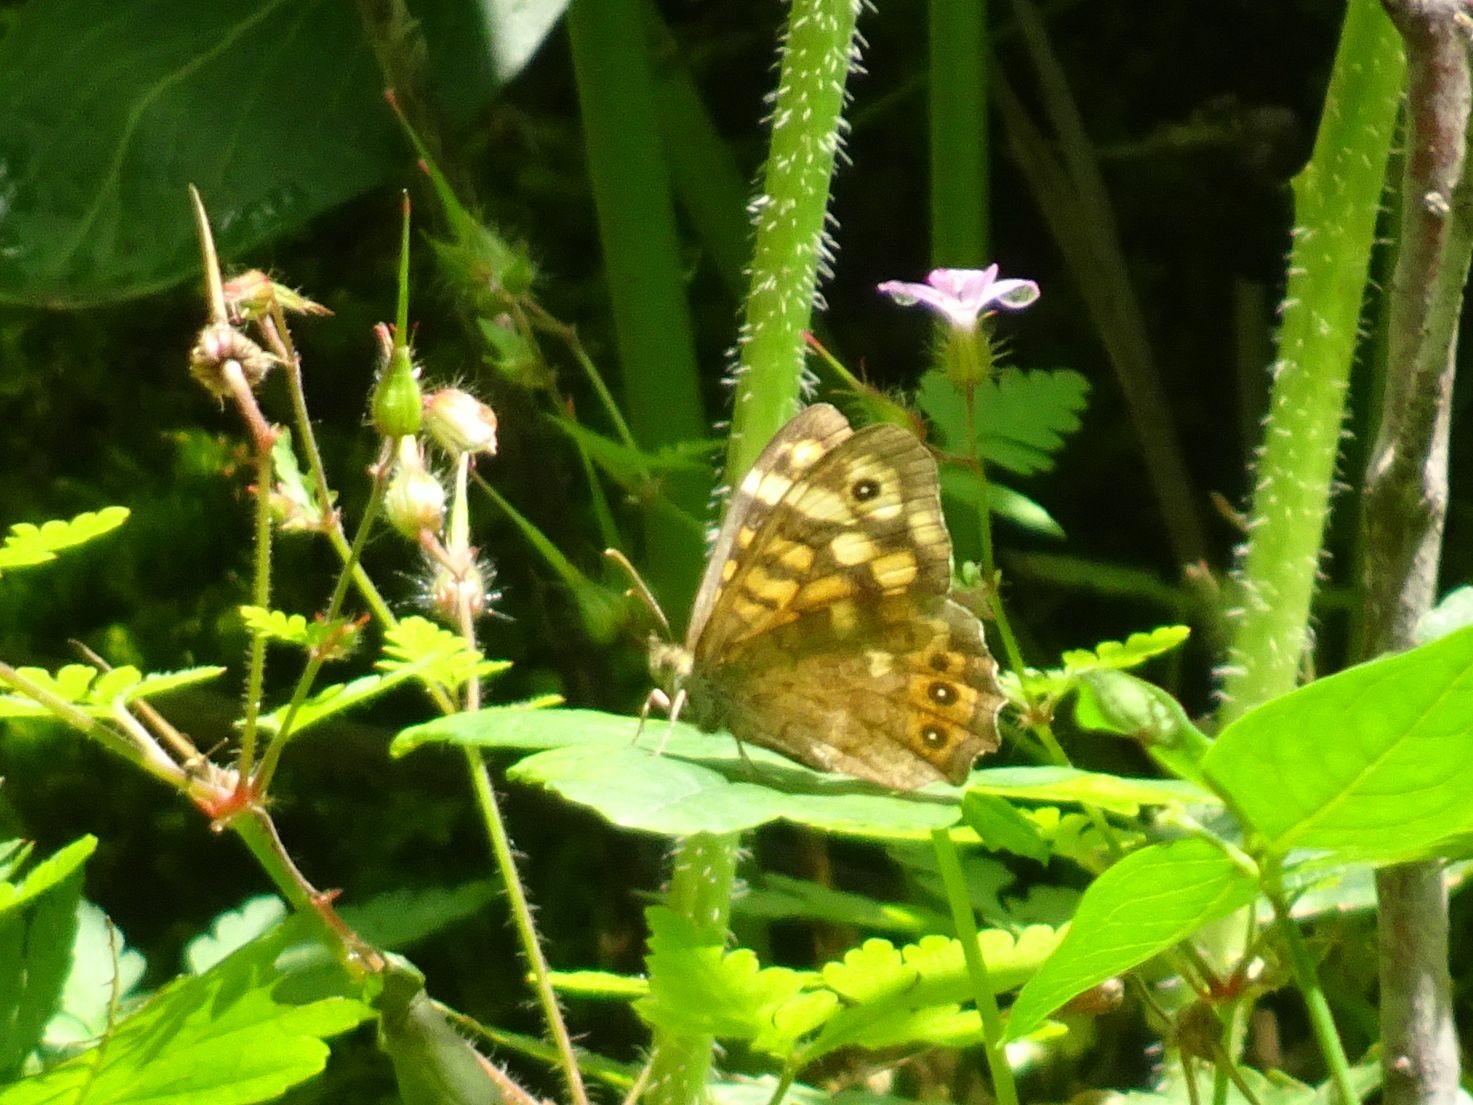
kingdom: Animalia
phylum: Arthropoda
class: Insecta
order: Lepidoptera
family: Nymphalidae
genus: Pararge
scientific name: Pararge aegeria
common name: Speckled wood
